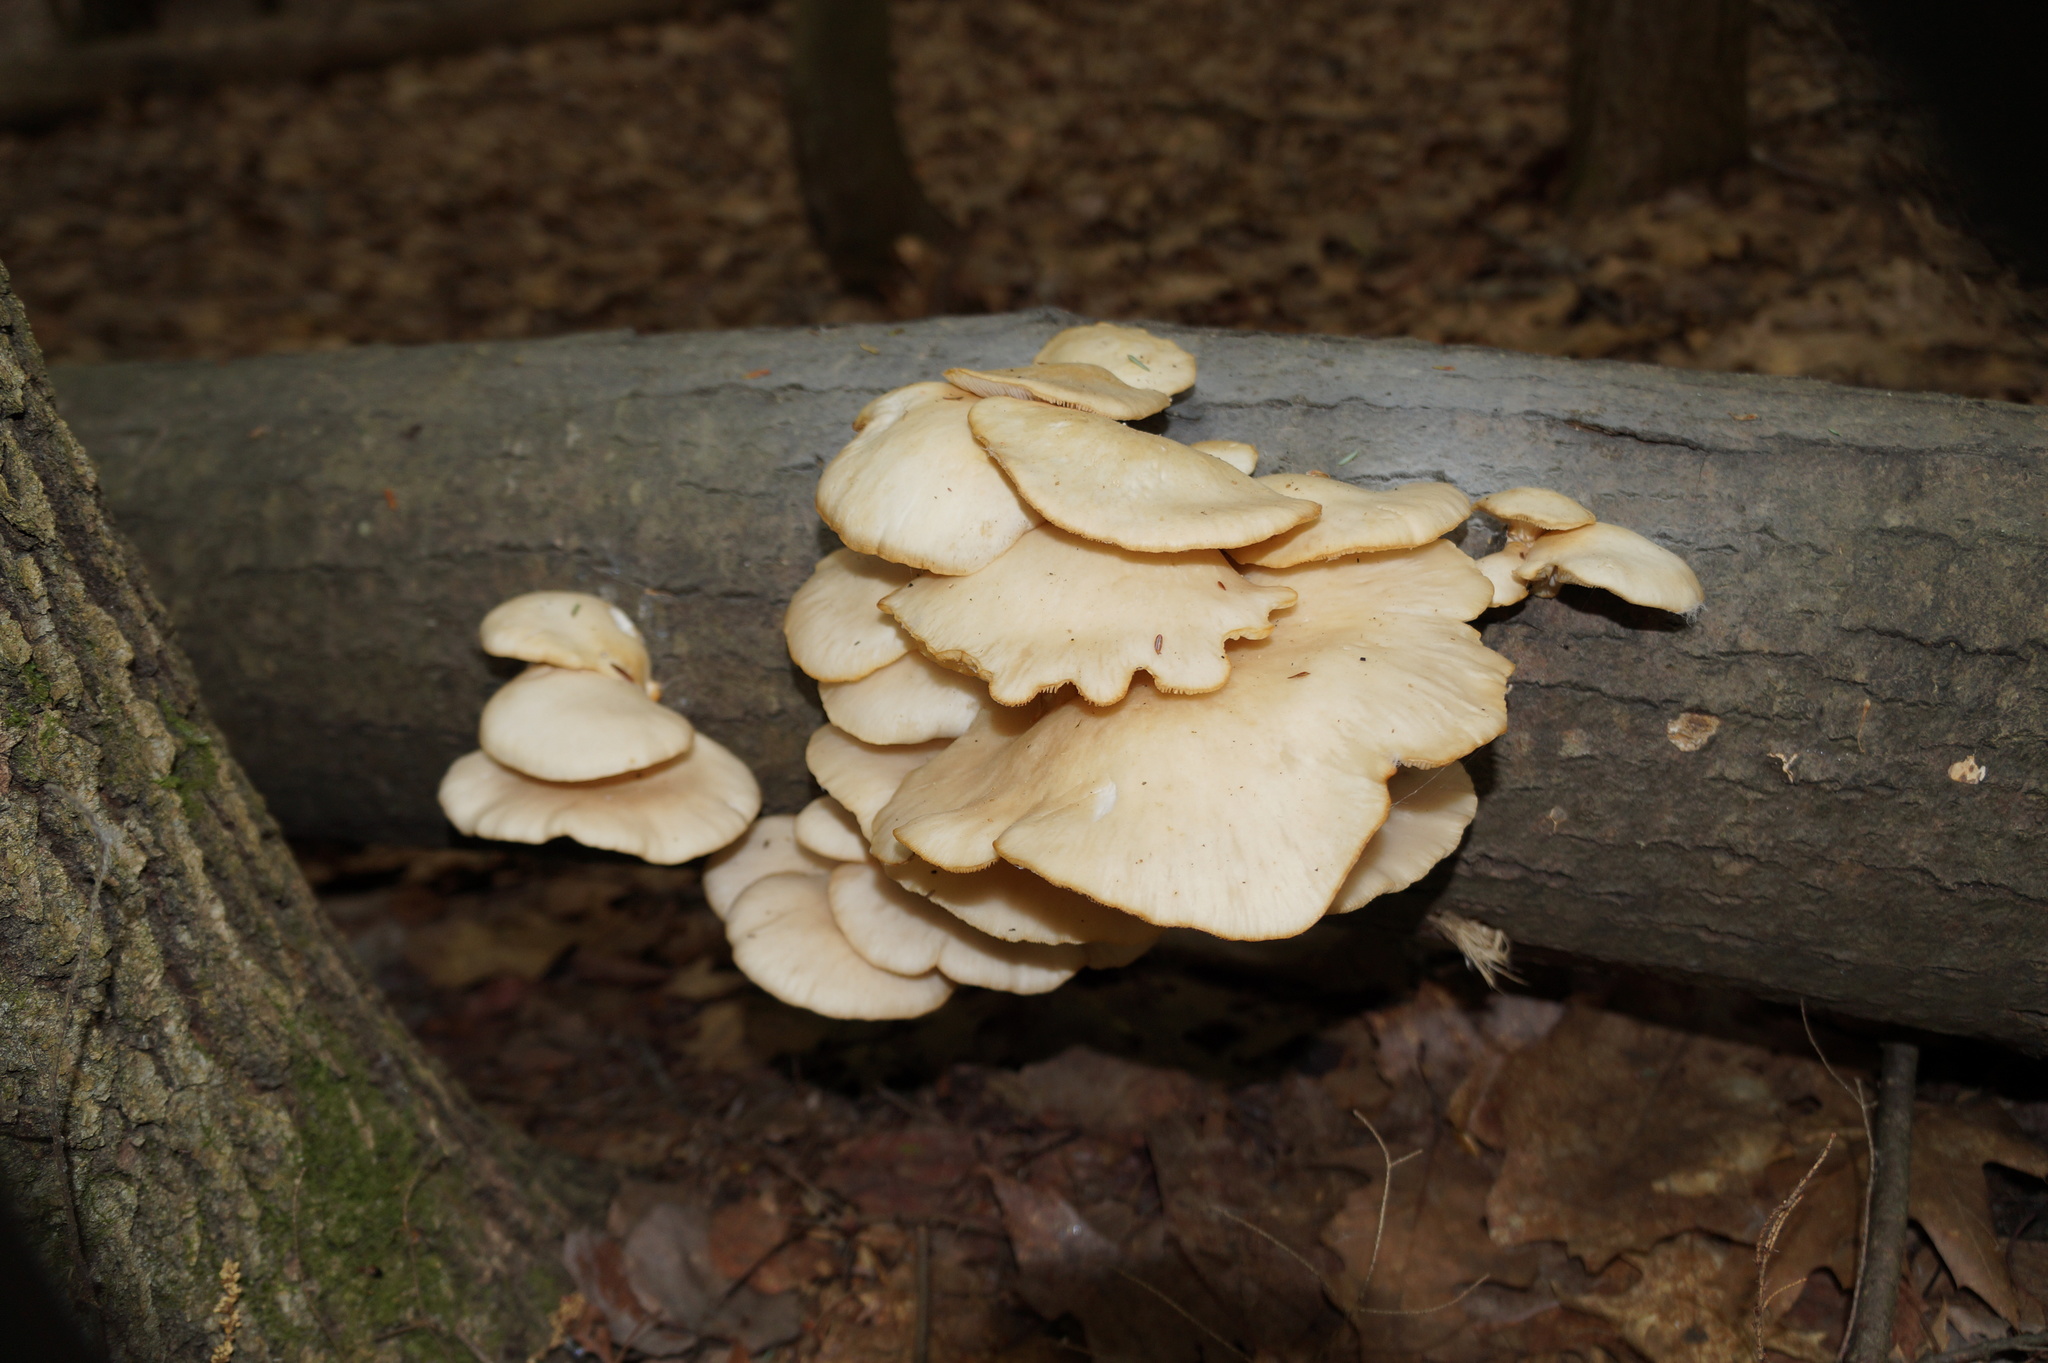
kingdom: Fungi
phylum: Basidiomycota
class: Agaricomycetes
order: Agaricales
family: Pleurotaceae
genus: Pleurotus
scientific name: Pleurotus populinus
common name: Aspen oyster mushroom
